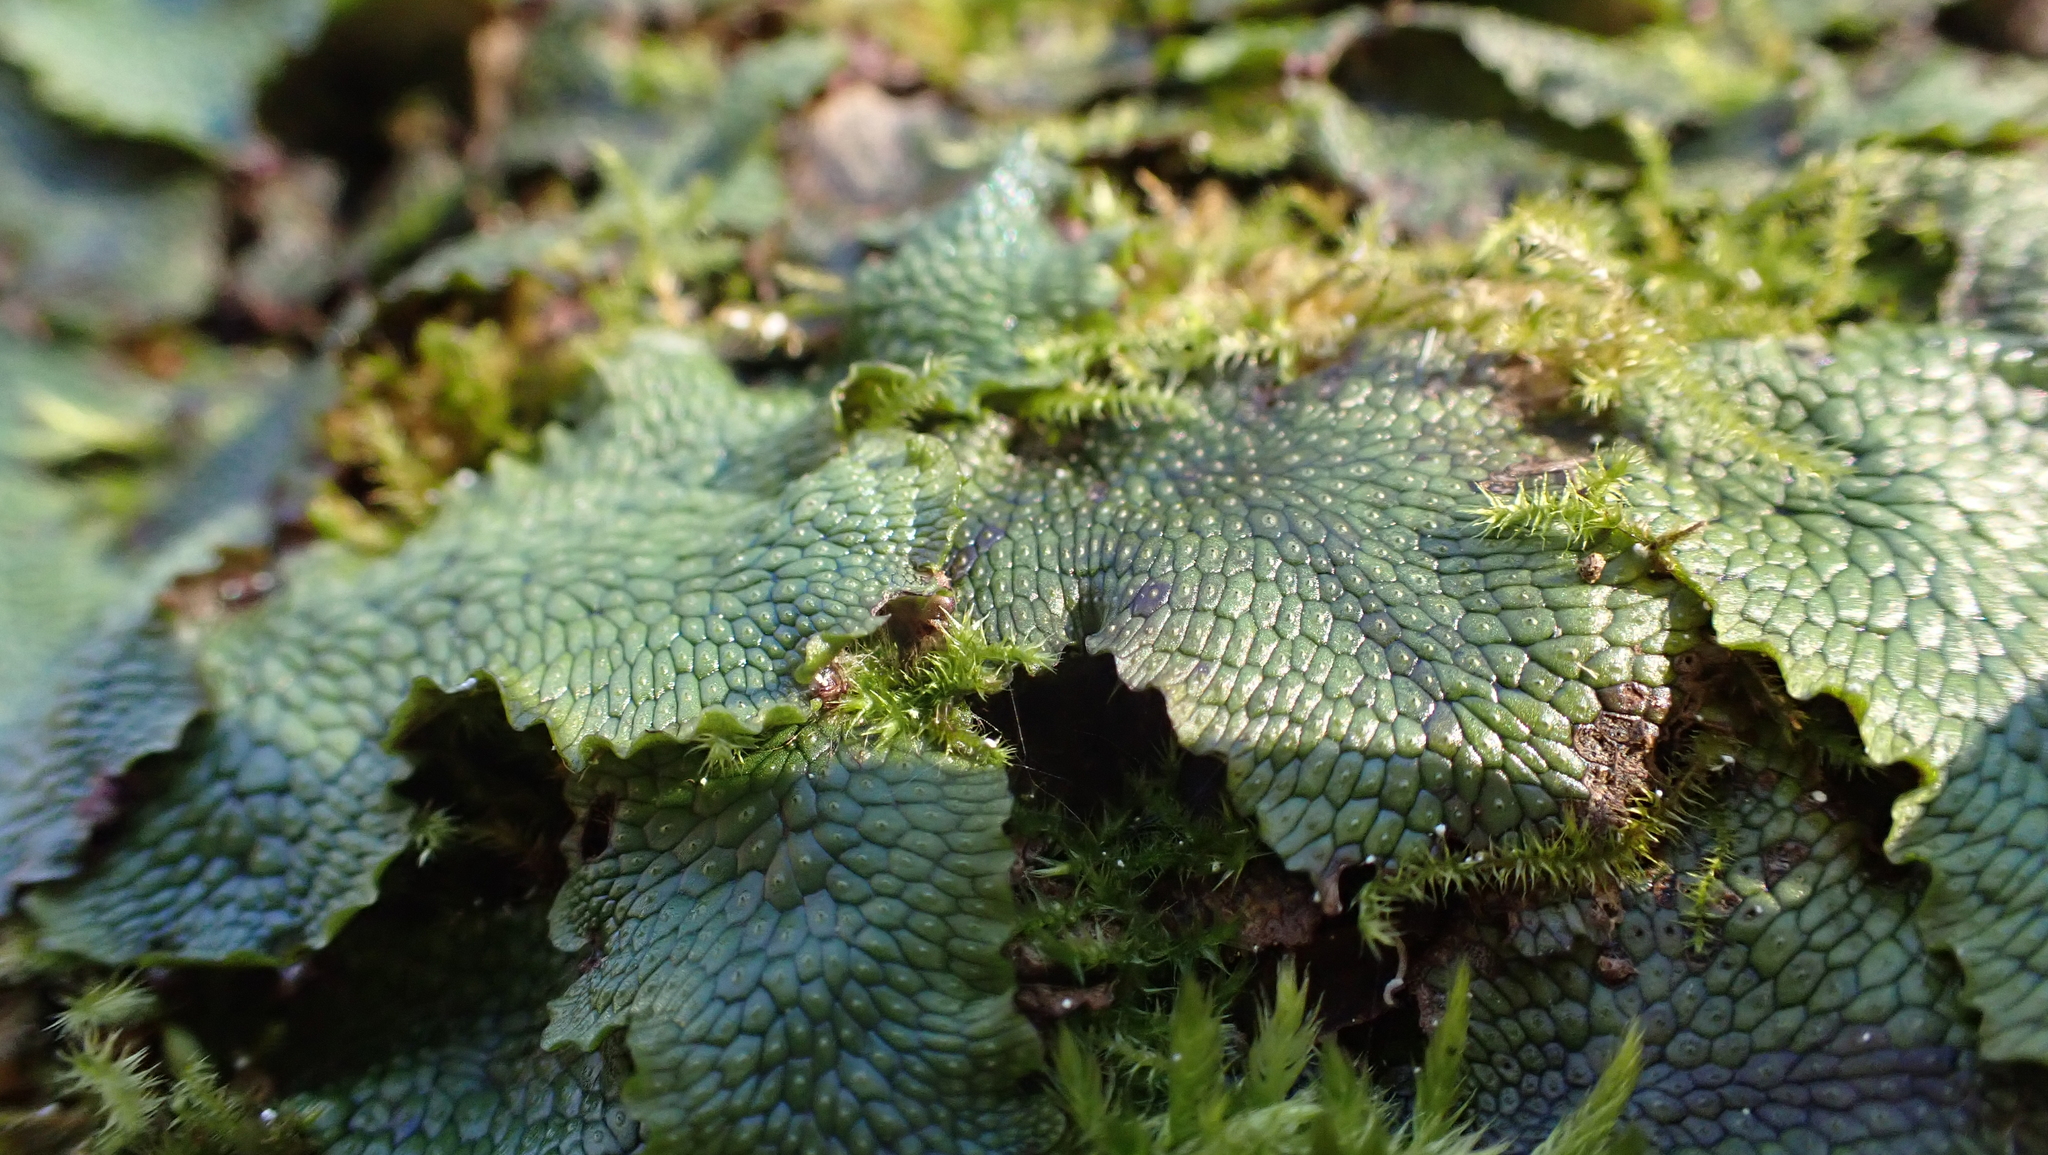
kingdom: Plantae
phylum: Marchantiophyta
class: Marchantiopsida
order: Marchantiales
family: Conocephalaceae
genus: Conocephalum
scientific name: Conocephalum salebrosum
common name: Cat-tongue liverwort
